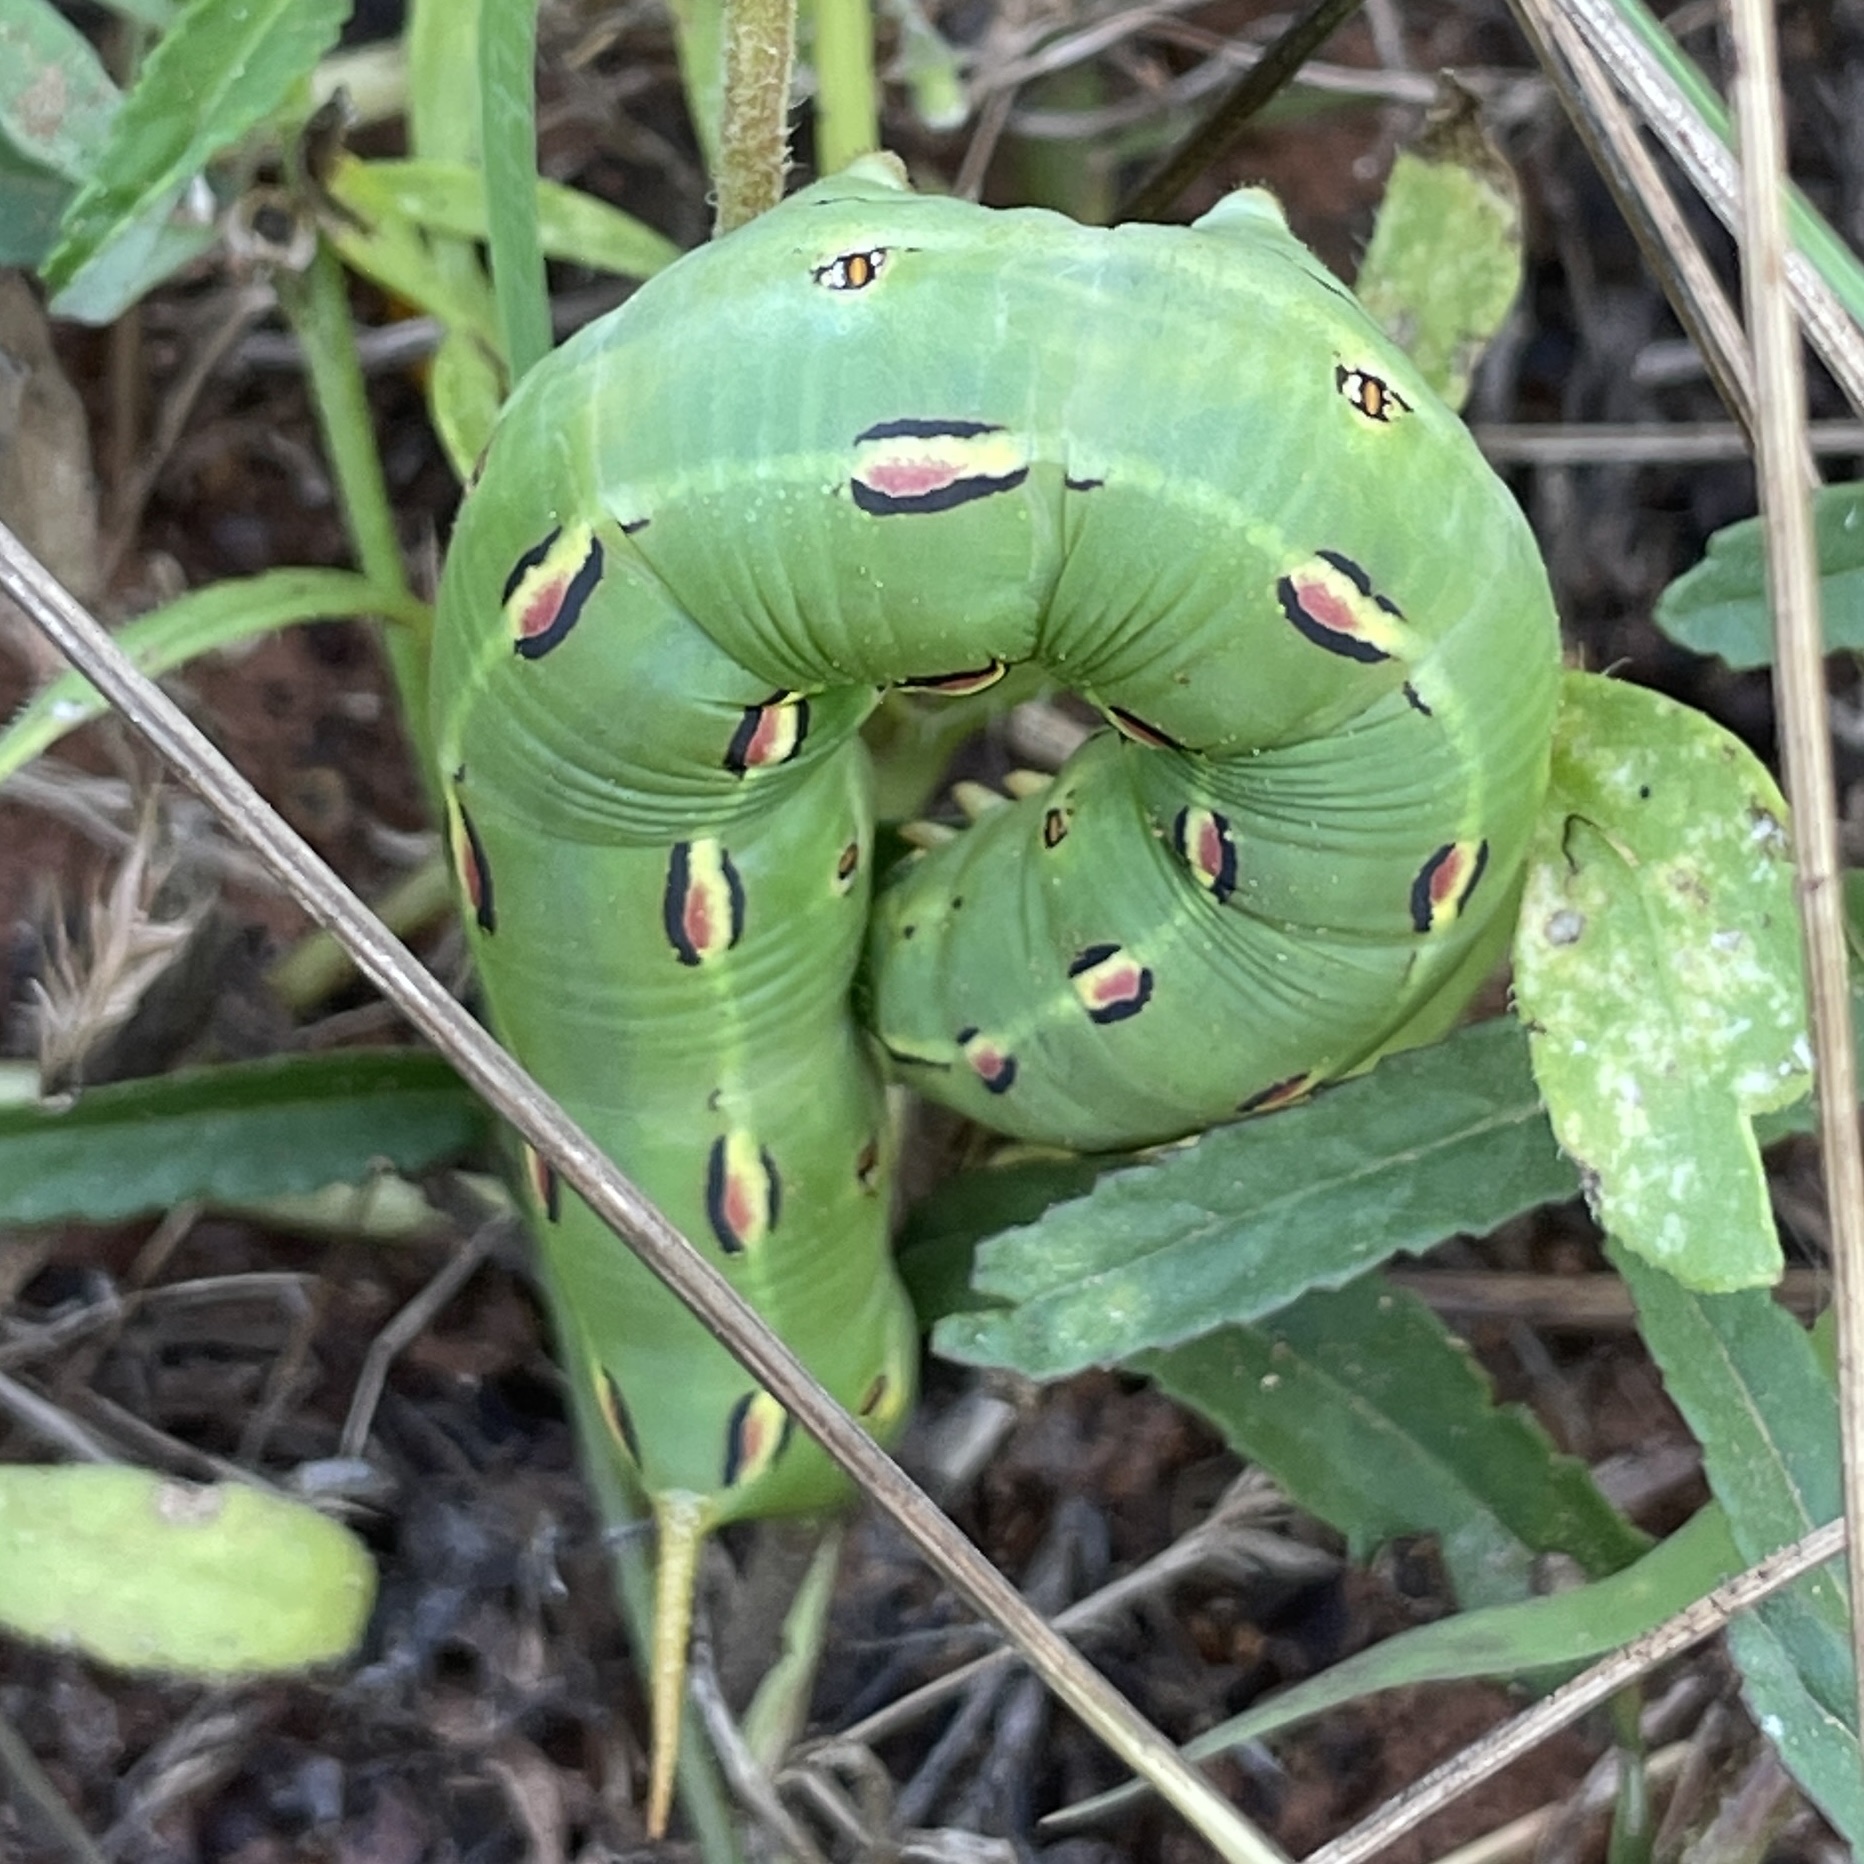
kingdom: Animalia
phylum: Arthropoda
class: Insecta
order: Lepidoptera
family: Sphingidae
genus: Hyles
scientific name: Hyles lineata
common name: White-lined sphinx
